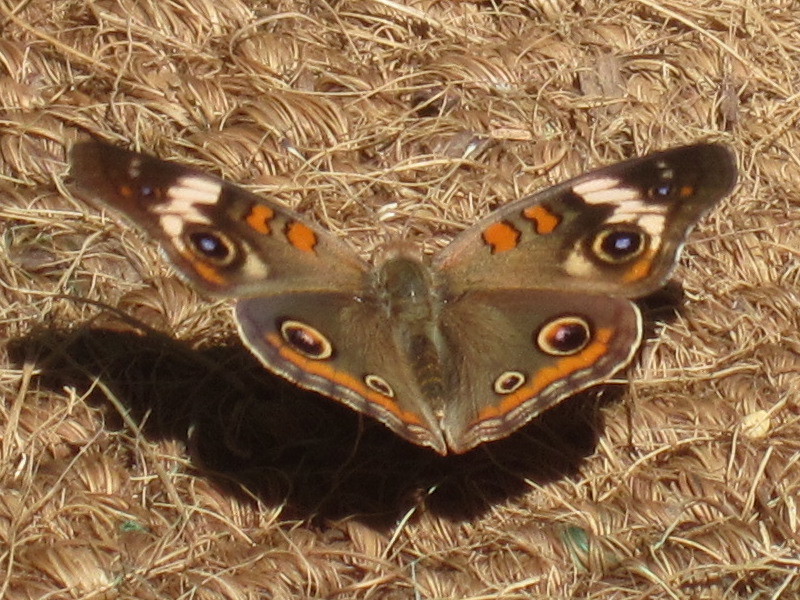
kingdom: Animalia
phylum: Arthropoda
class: Insecta
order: Lepidoptera
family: Nymphalidae
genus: Junonia
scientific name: Junonia coenia
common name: Common buckeye
